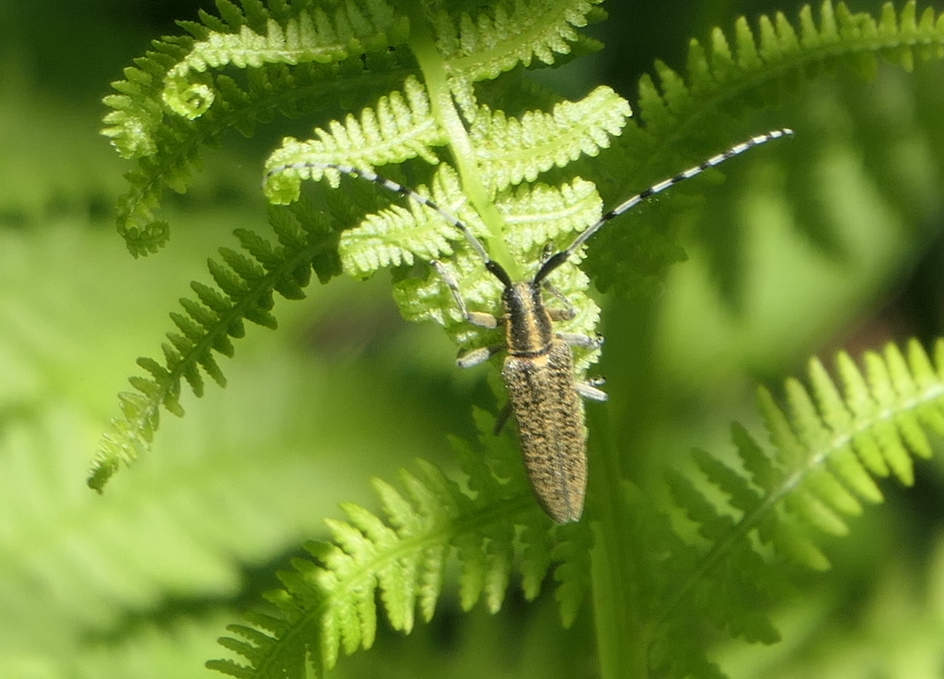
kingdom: Animalia
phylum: Arthropoda
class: Insecta
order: Coleoptera
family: Cerambycidae
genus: Agapanthia
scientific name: Agapanthia villosoviridescens
